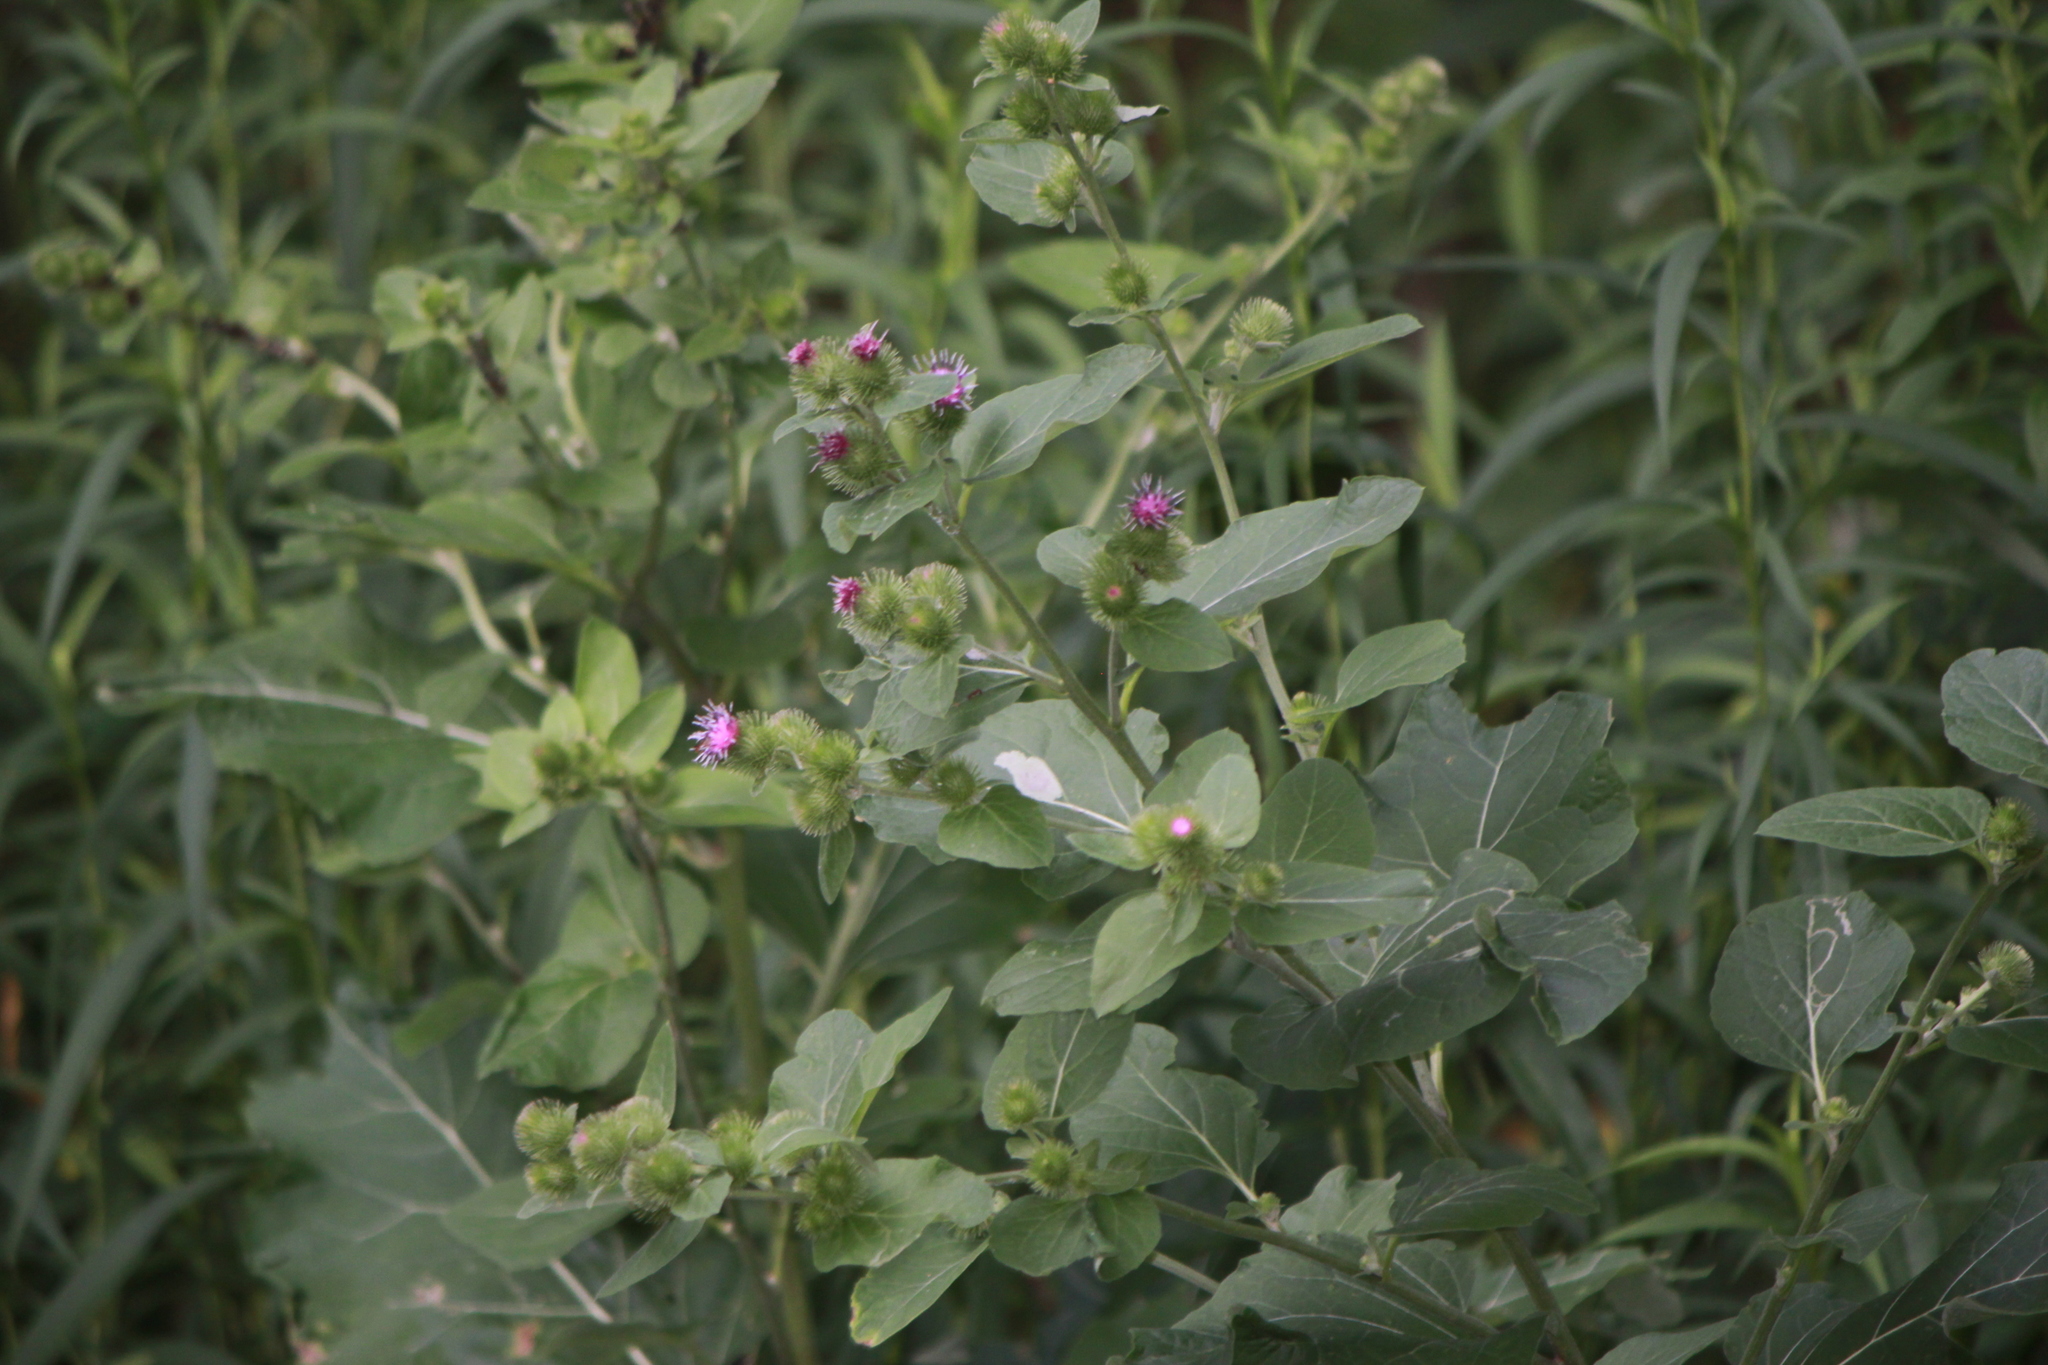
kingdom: Plantae
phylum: Tracheophyta
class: Magnoliopsida
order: Asterales
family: Asteraceae
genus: Arctium
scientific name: Arctium minus
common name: Lesser burdock
